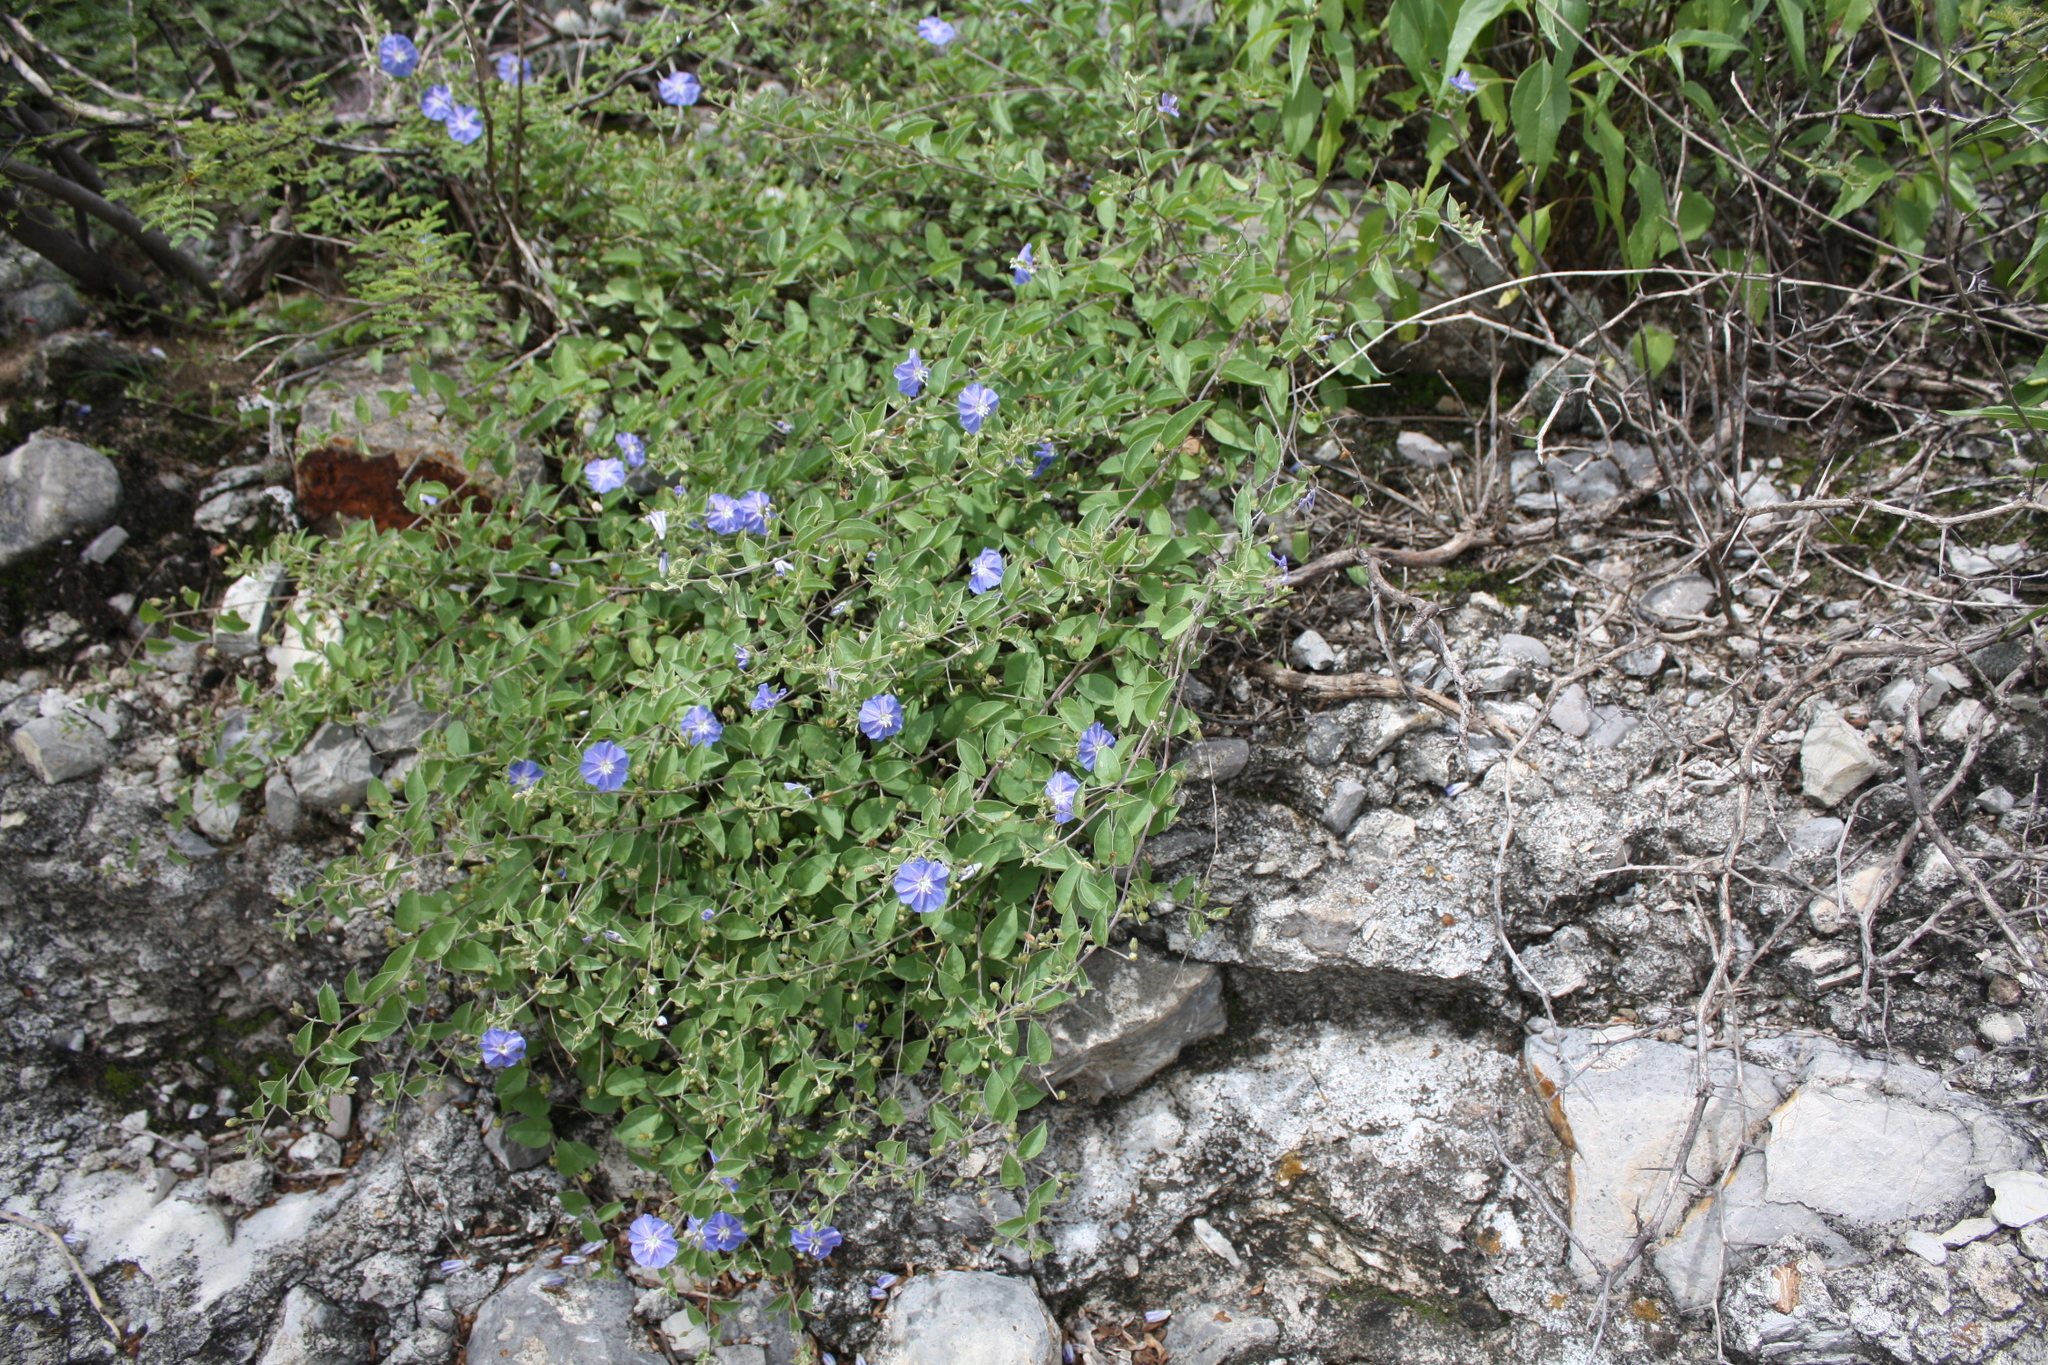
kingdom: Plantae
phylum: Tracheophyta
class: Magnoliopsida
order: Solanales
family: Convolvulaceae
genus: Jacquemontia
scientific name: Jacquemontia smithii
